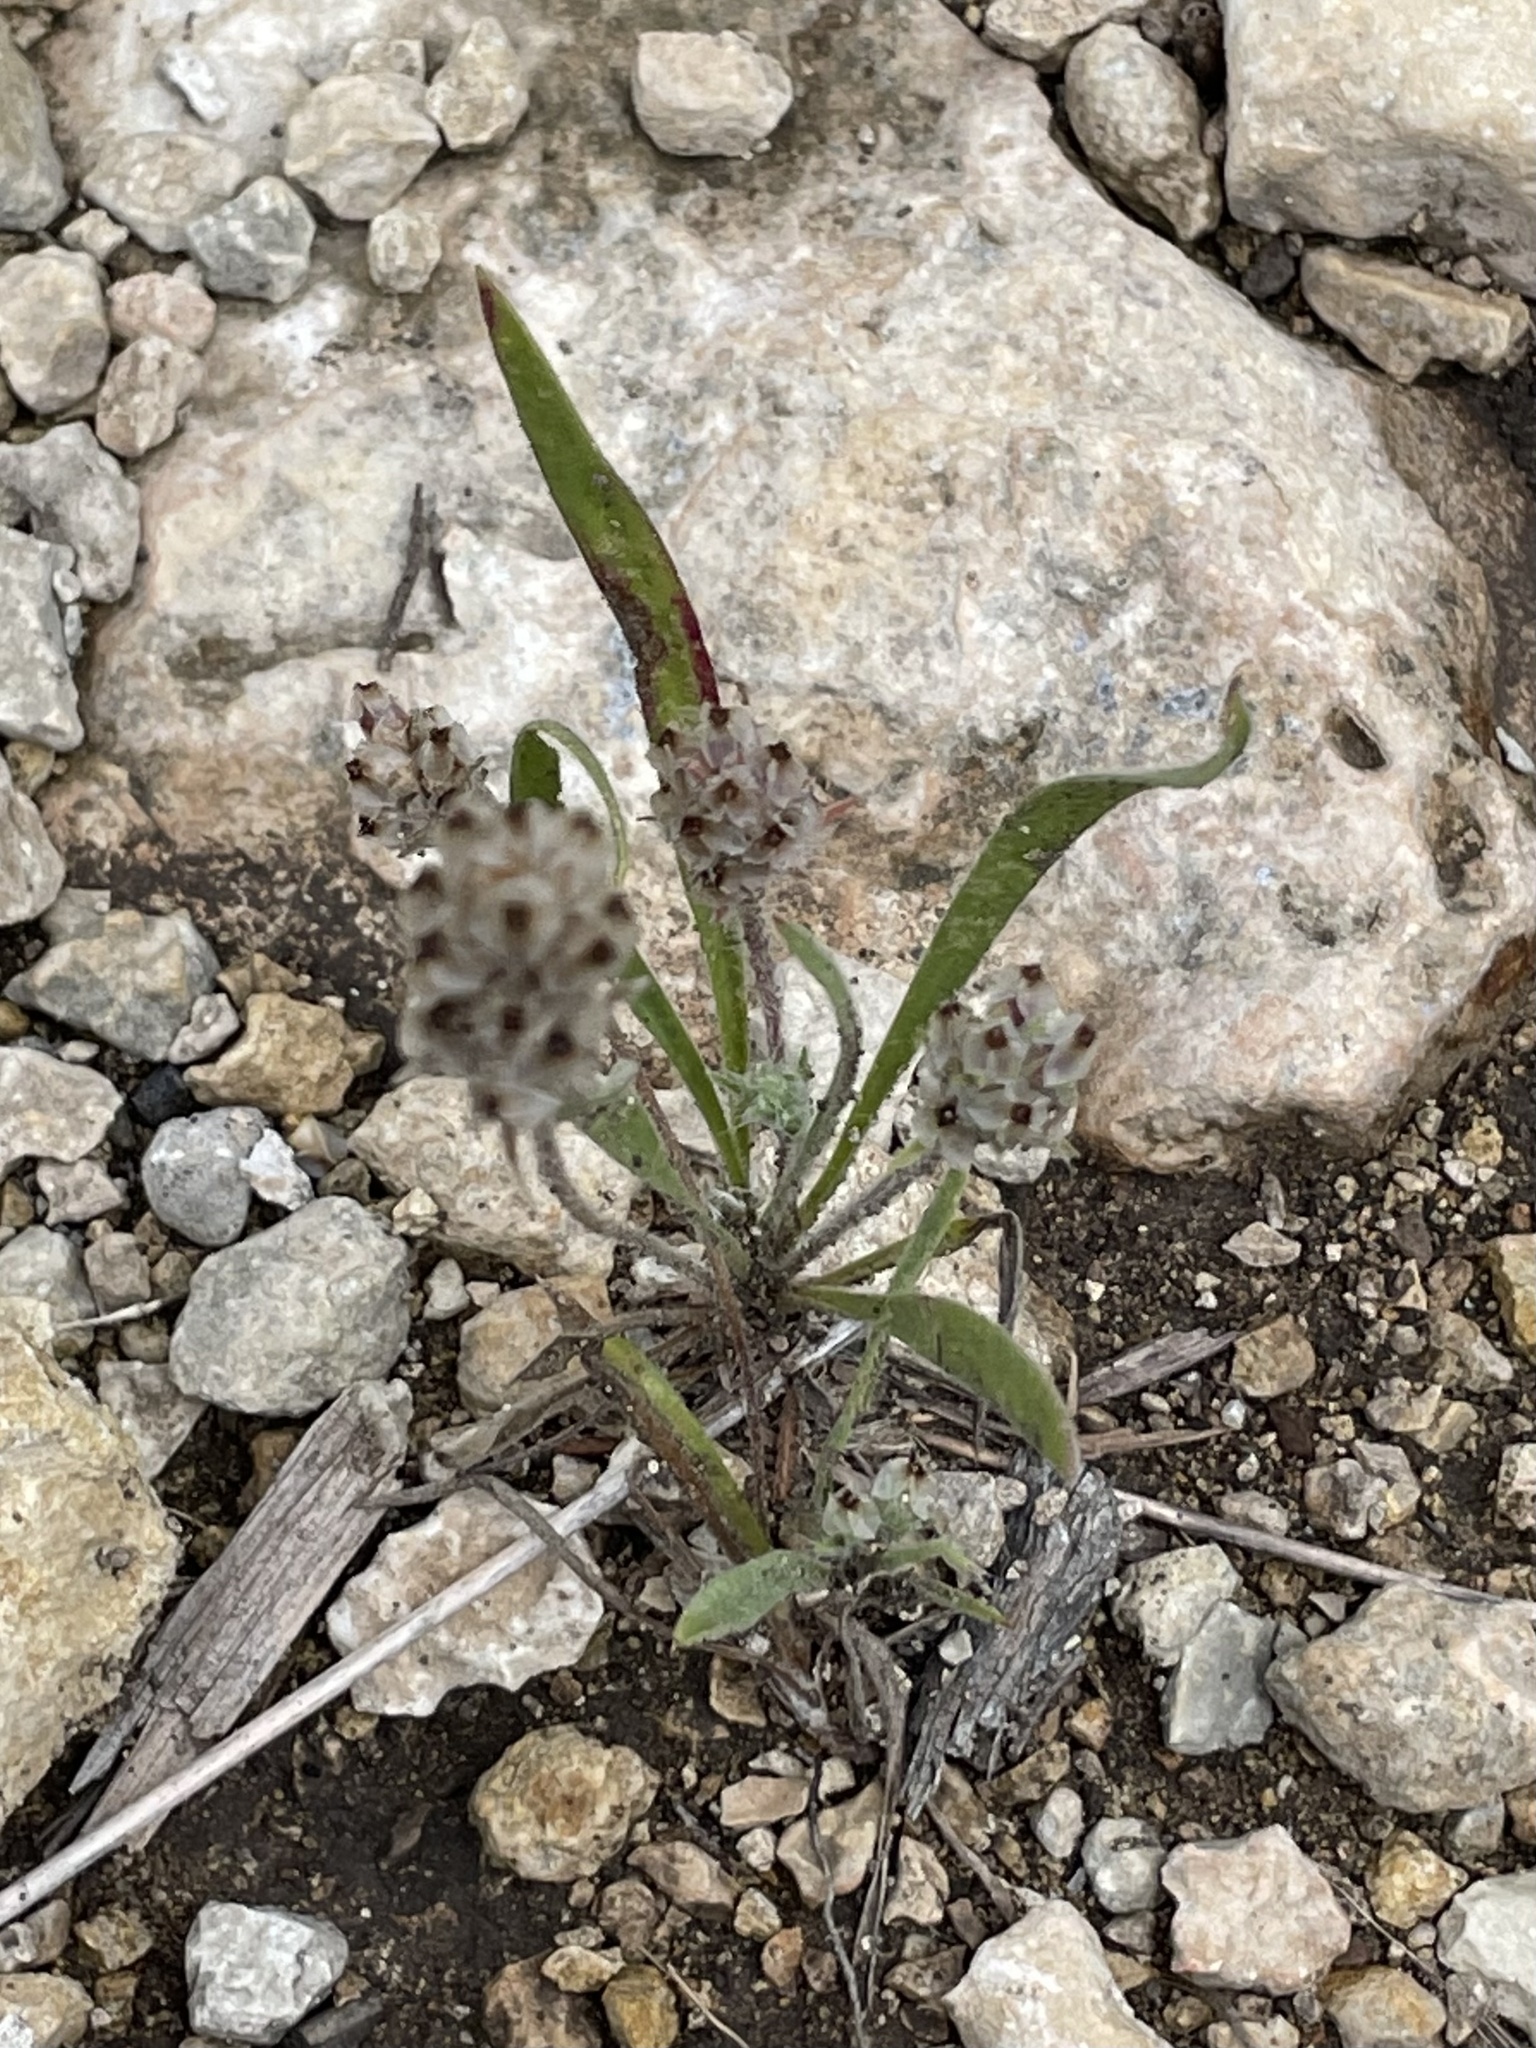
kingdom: Plantae
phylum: Tracheophyta
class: Magnoliopsida
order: Lamiales
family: Plantaginaceae
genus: Plantago
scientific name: Plantago helleri
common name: Heller's plantain
